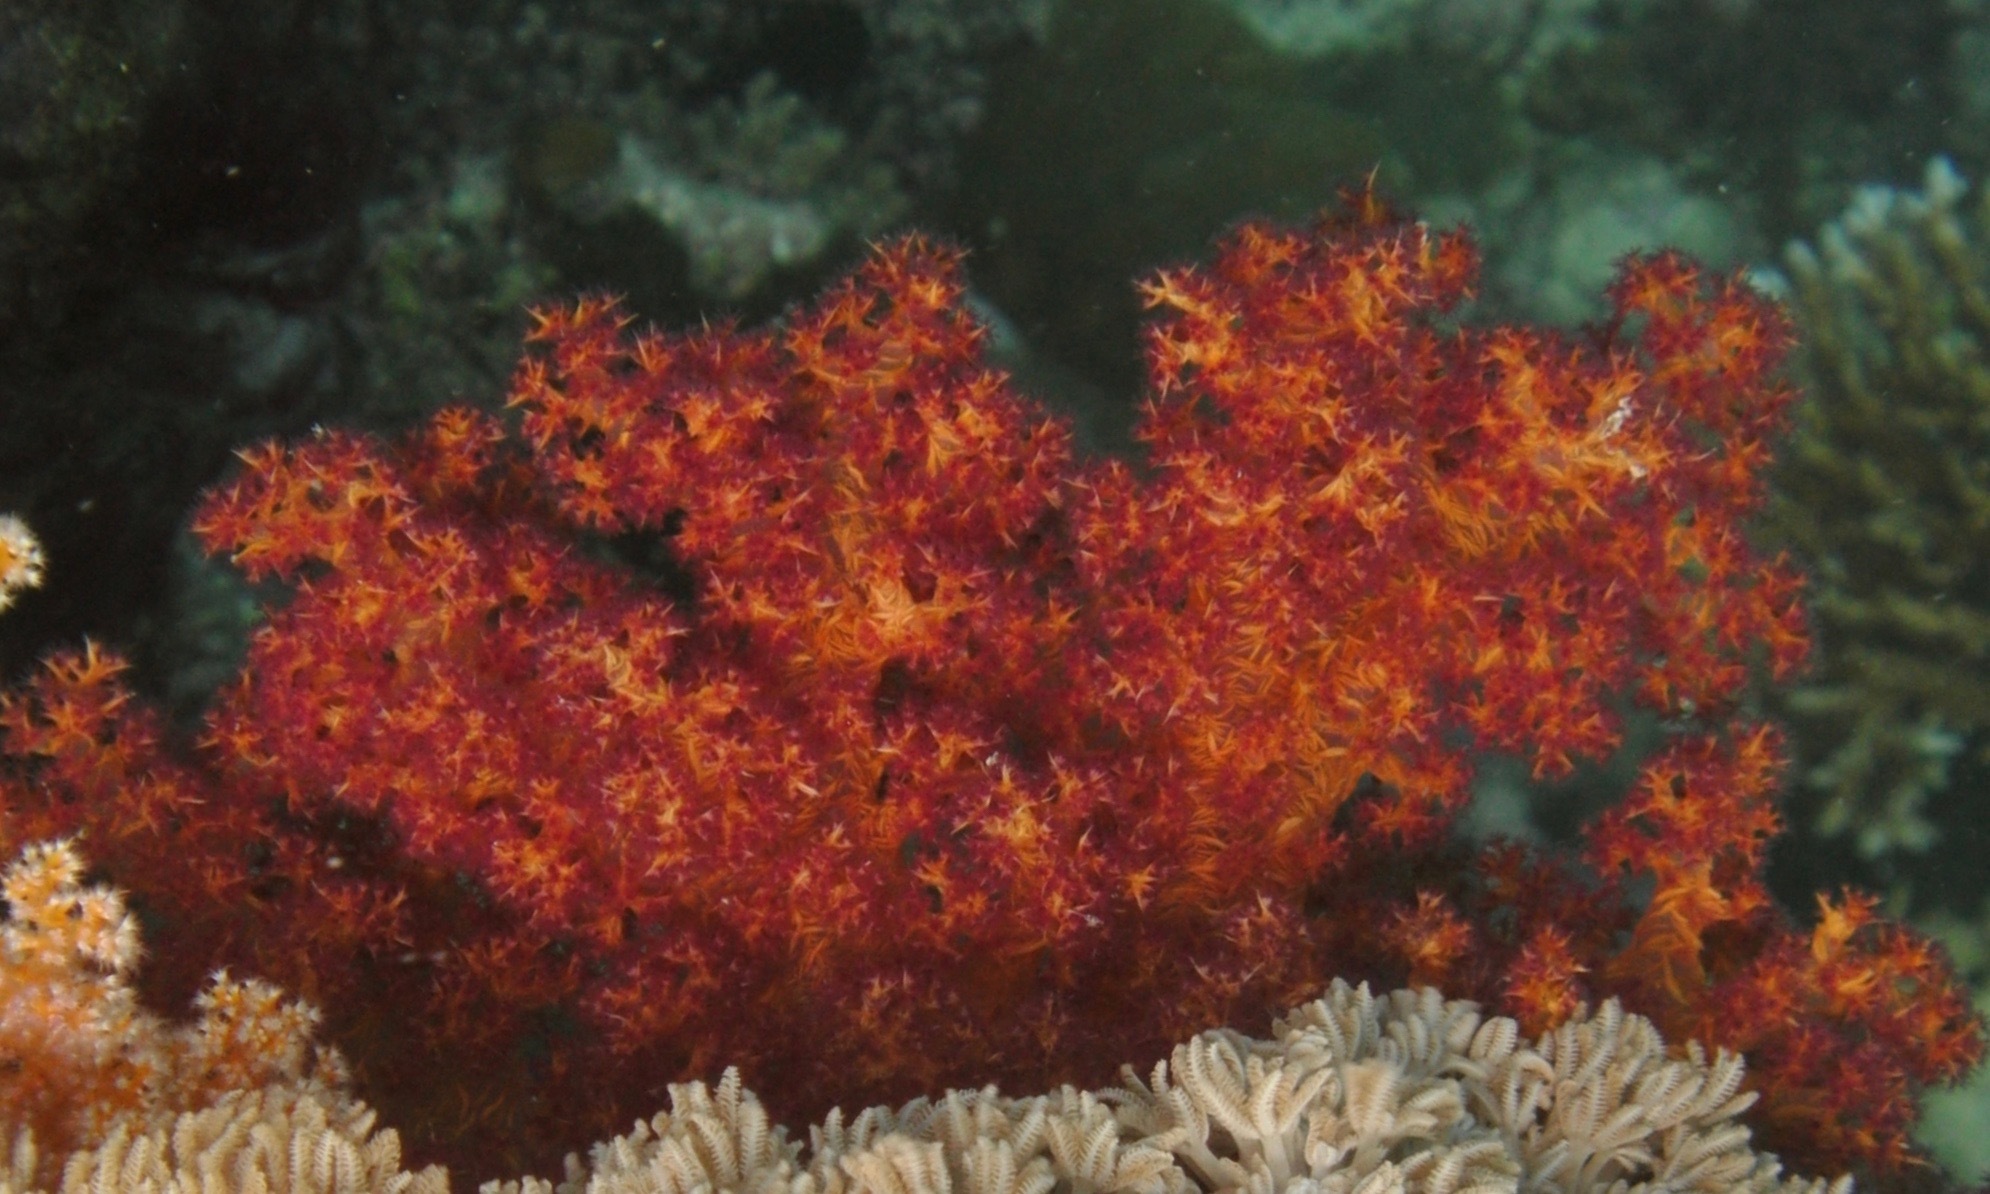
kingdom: Animalia
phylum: Cnidaria
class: Anthozoa
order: Malacalcyonacea
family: Nephtheidae
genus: Dendronephthya
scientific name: Dendronephthya hemprichi
